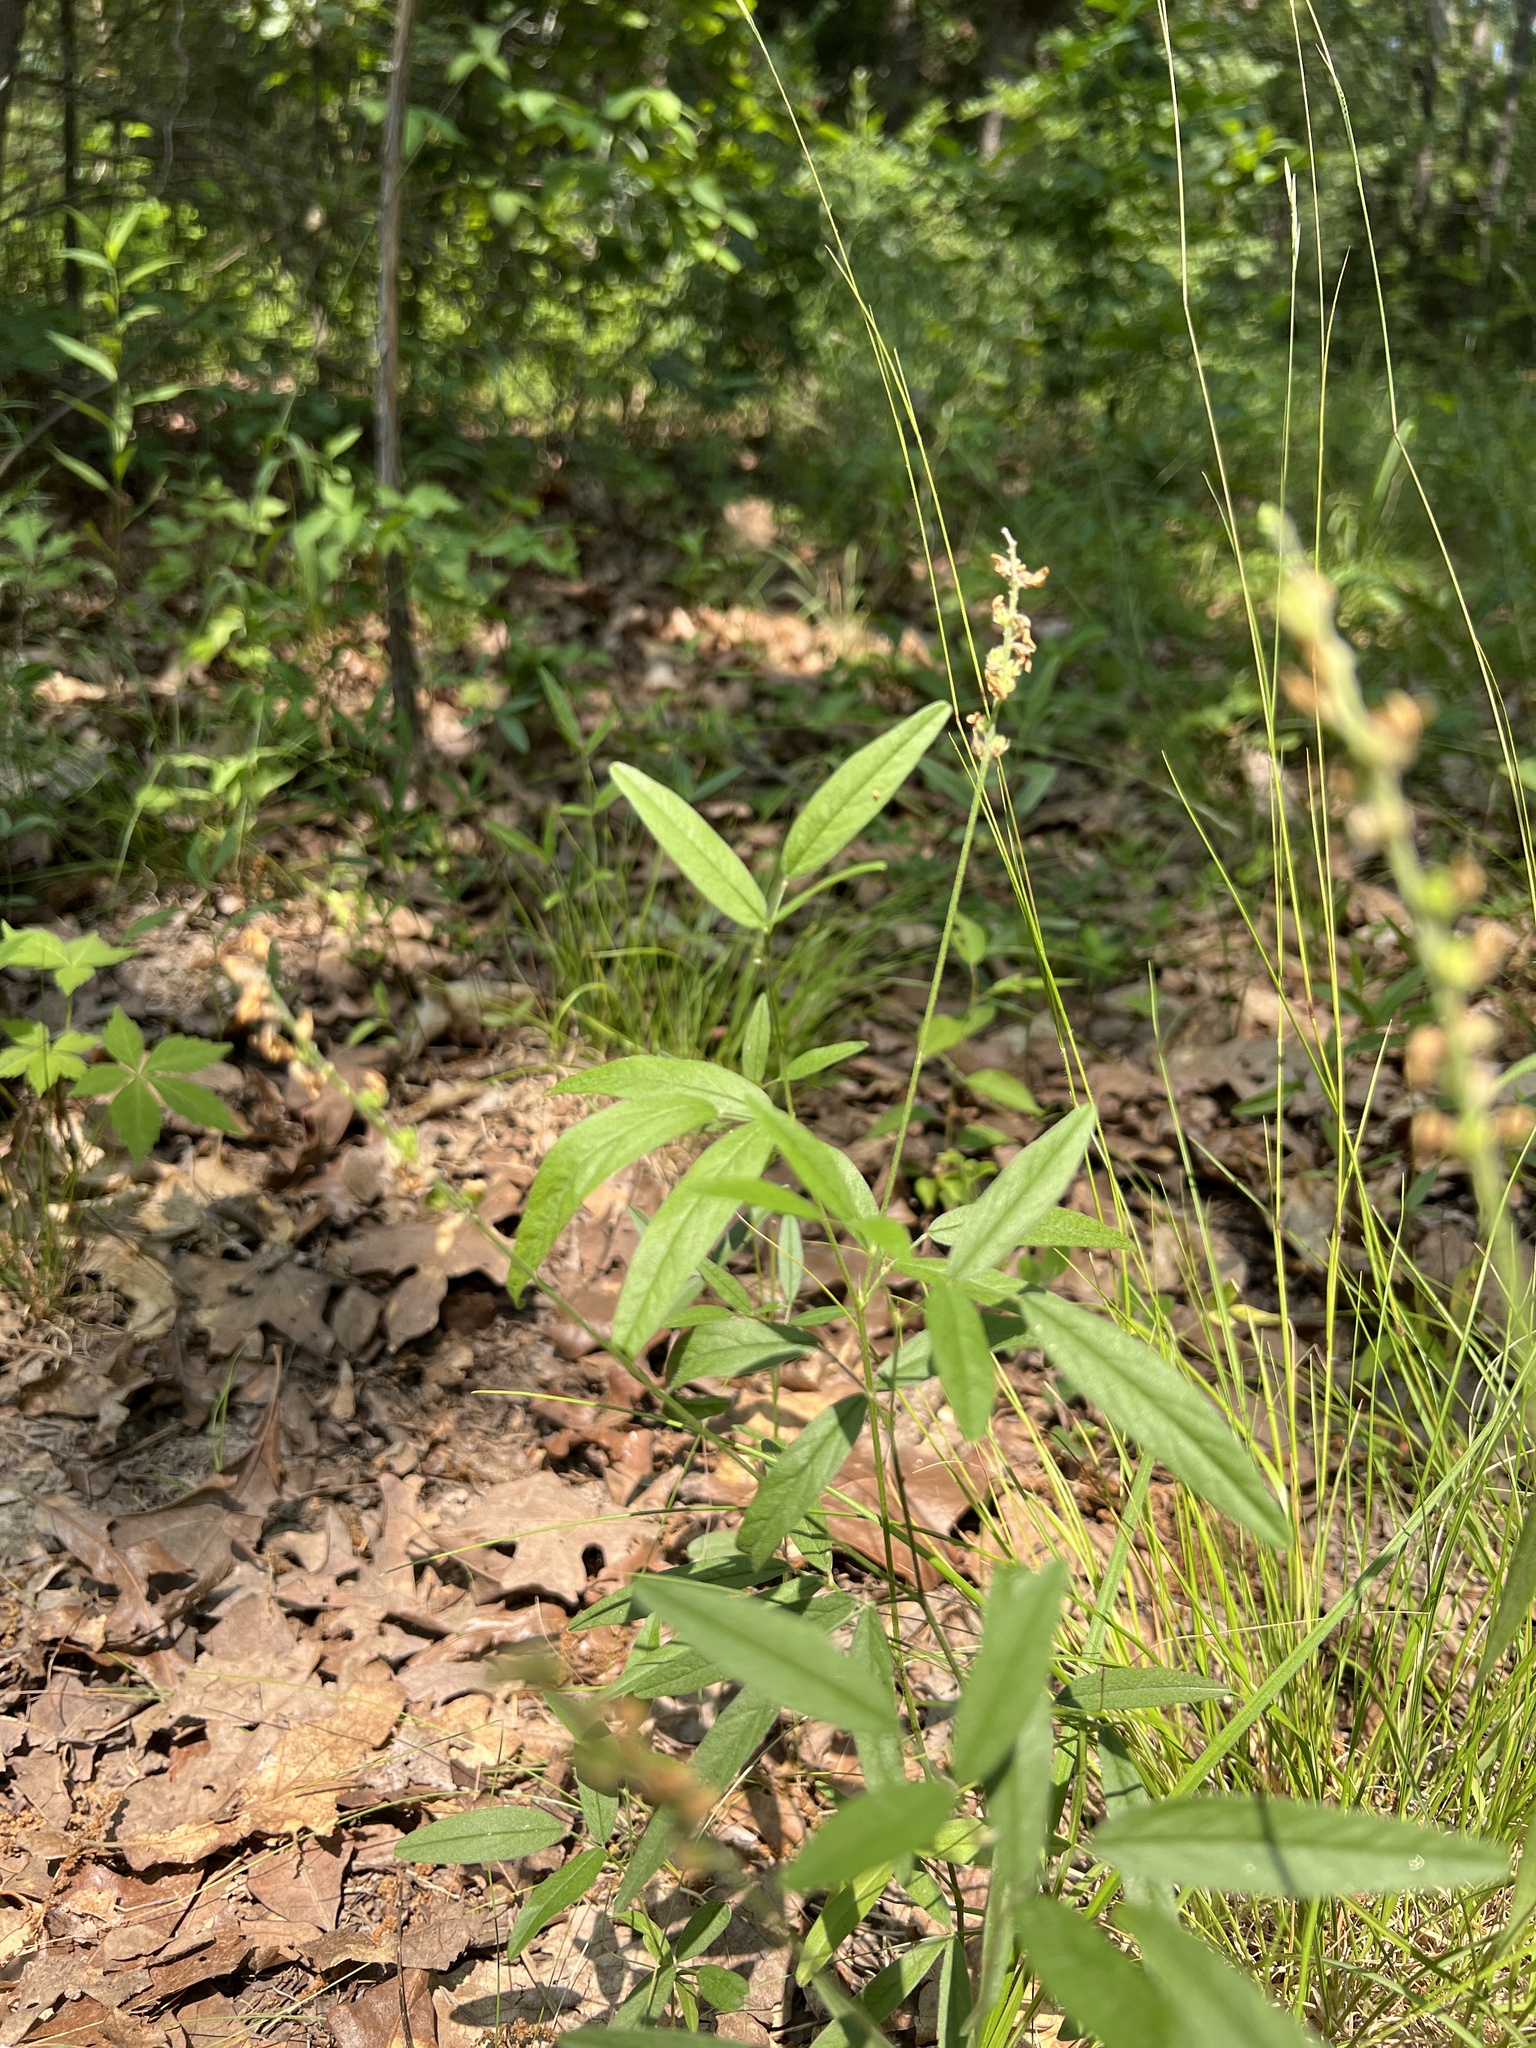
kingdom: Plantae
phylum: Tracheophyta
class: Magnoliopsida
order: Fabales
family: Fabaceae
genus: Orbexilum
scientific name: Orbexilum pedunculatum
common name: Sampson's snakeroot
